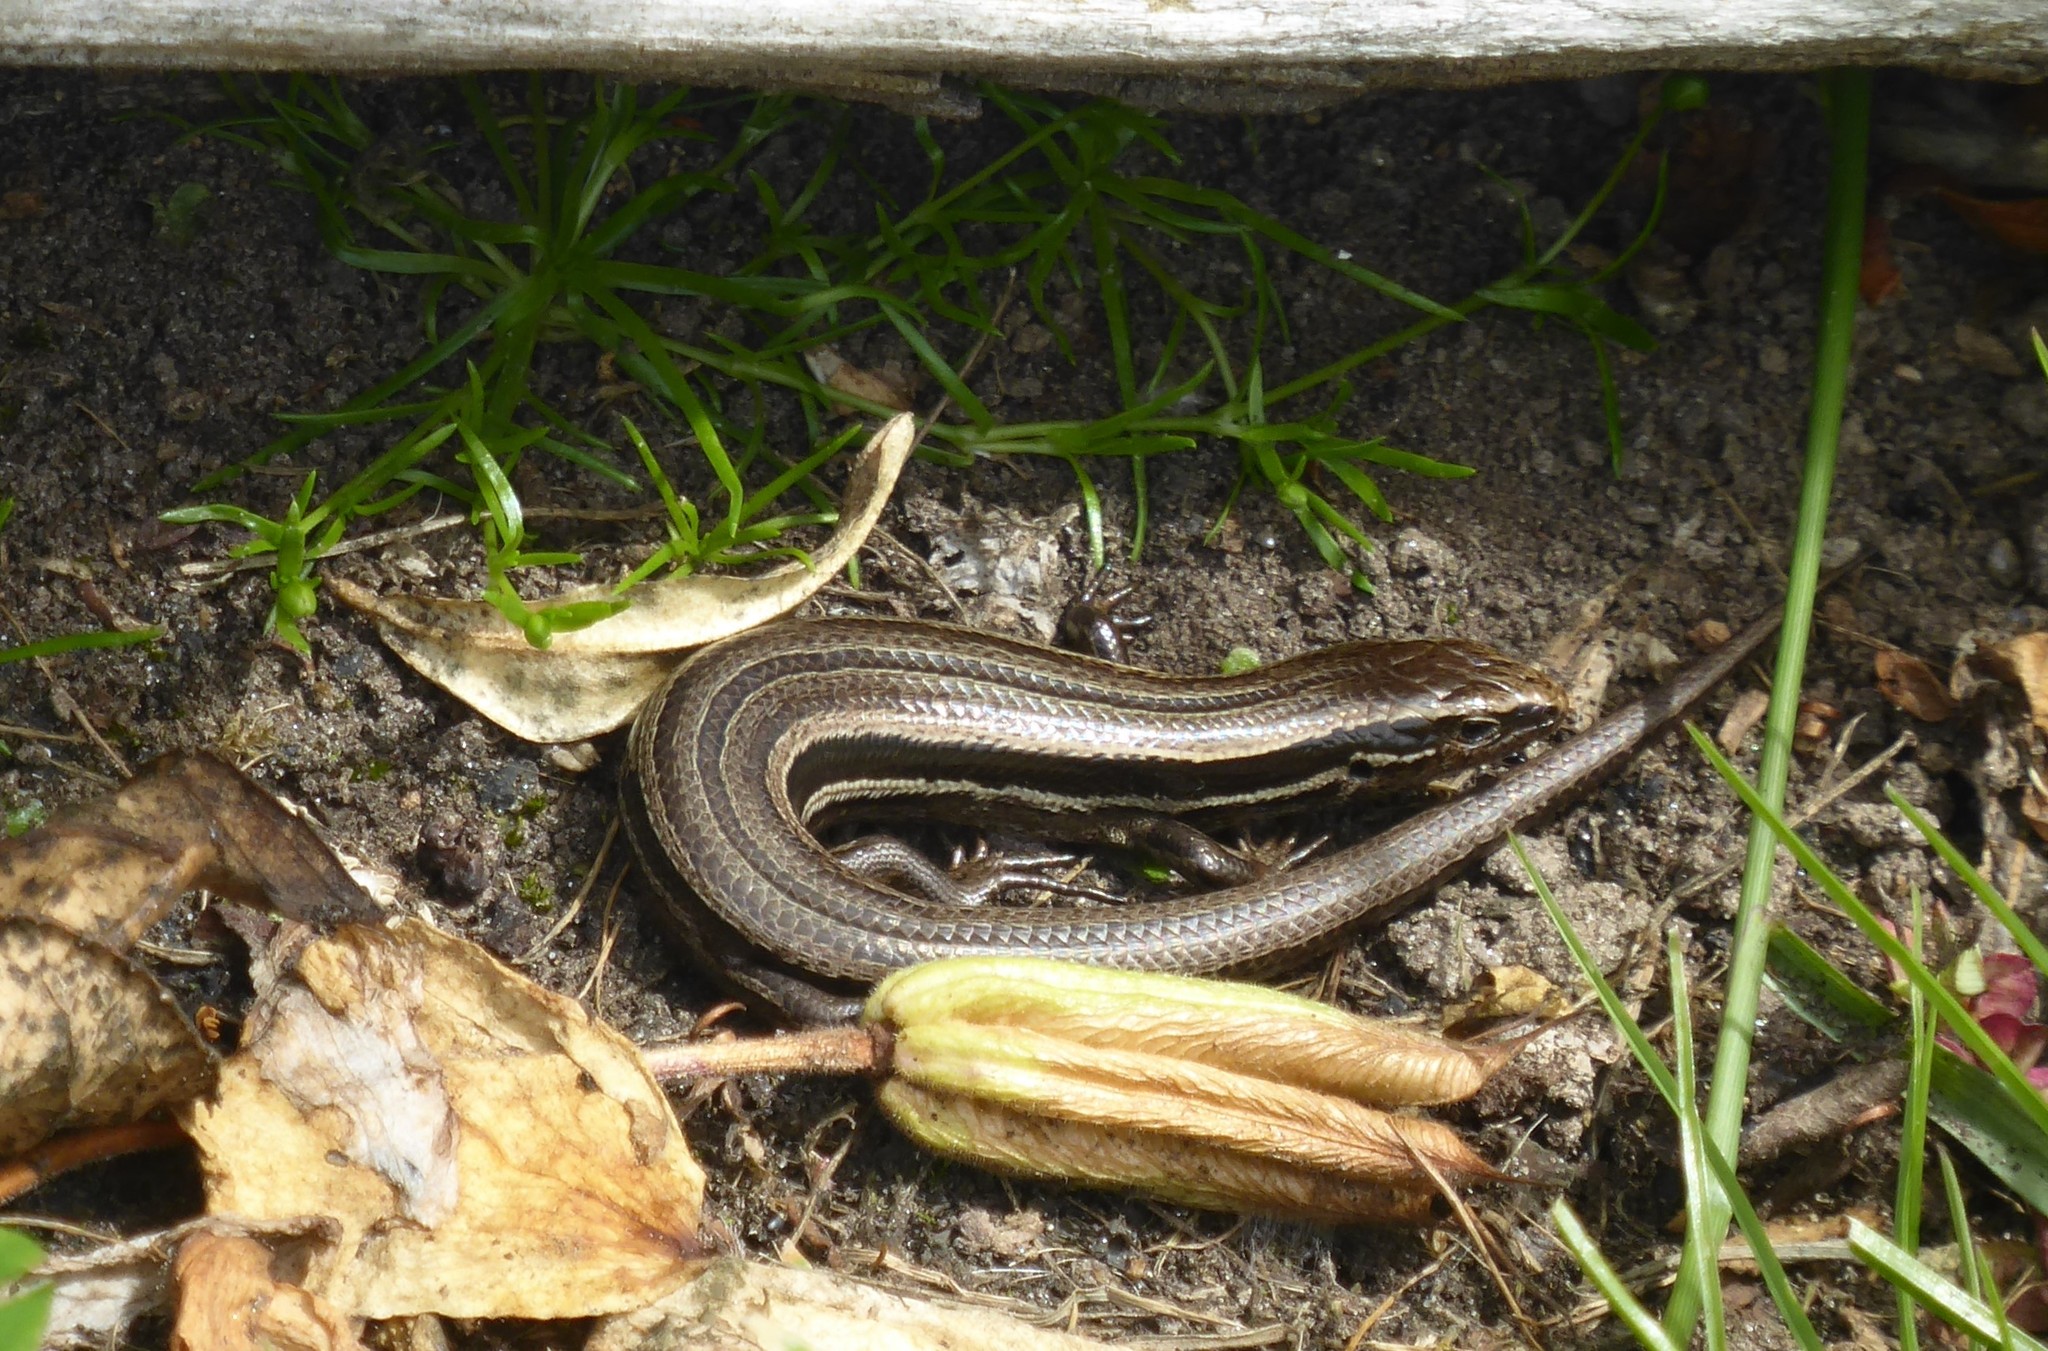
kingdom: Animalia
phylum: Chordata
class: Squamata
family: Scincidae
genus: Oligosoma
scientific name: Oligosoma polychroma
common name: Common new zealand skink
